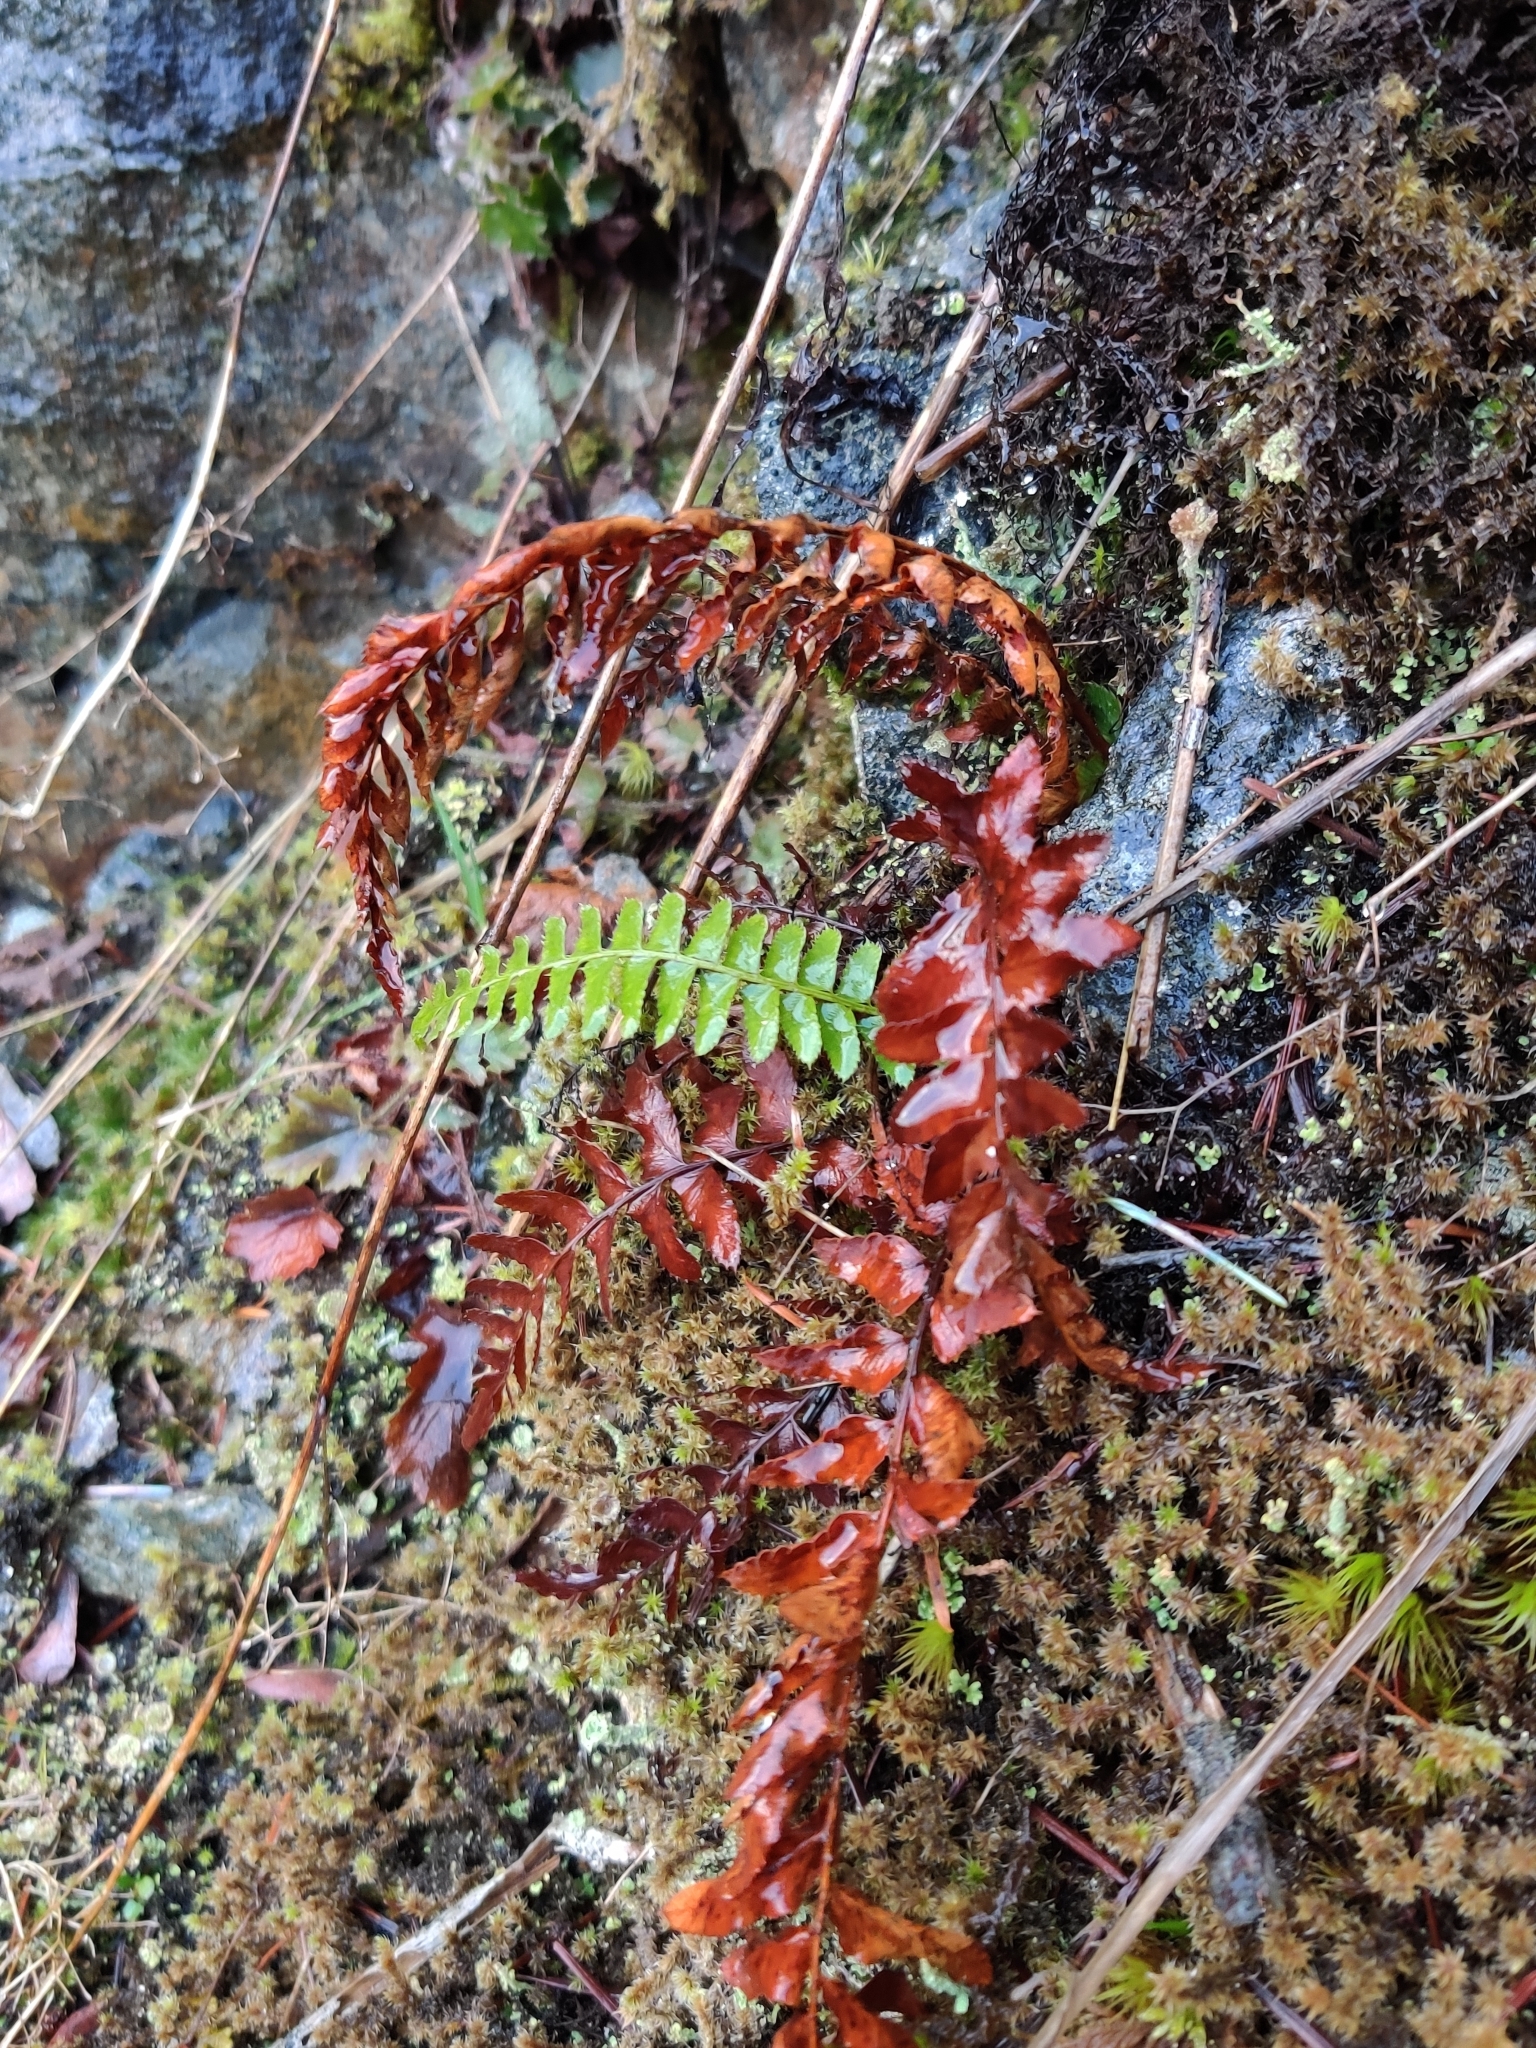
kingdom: Plantae
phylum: Tracheophyta
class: Polypodiopsida
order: Polypodiales
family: Dryopteridaceae
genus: Polystichum
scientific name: Polystichum imbricans
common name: Dwarf western sword fern
